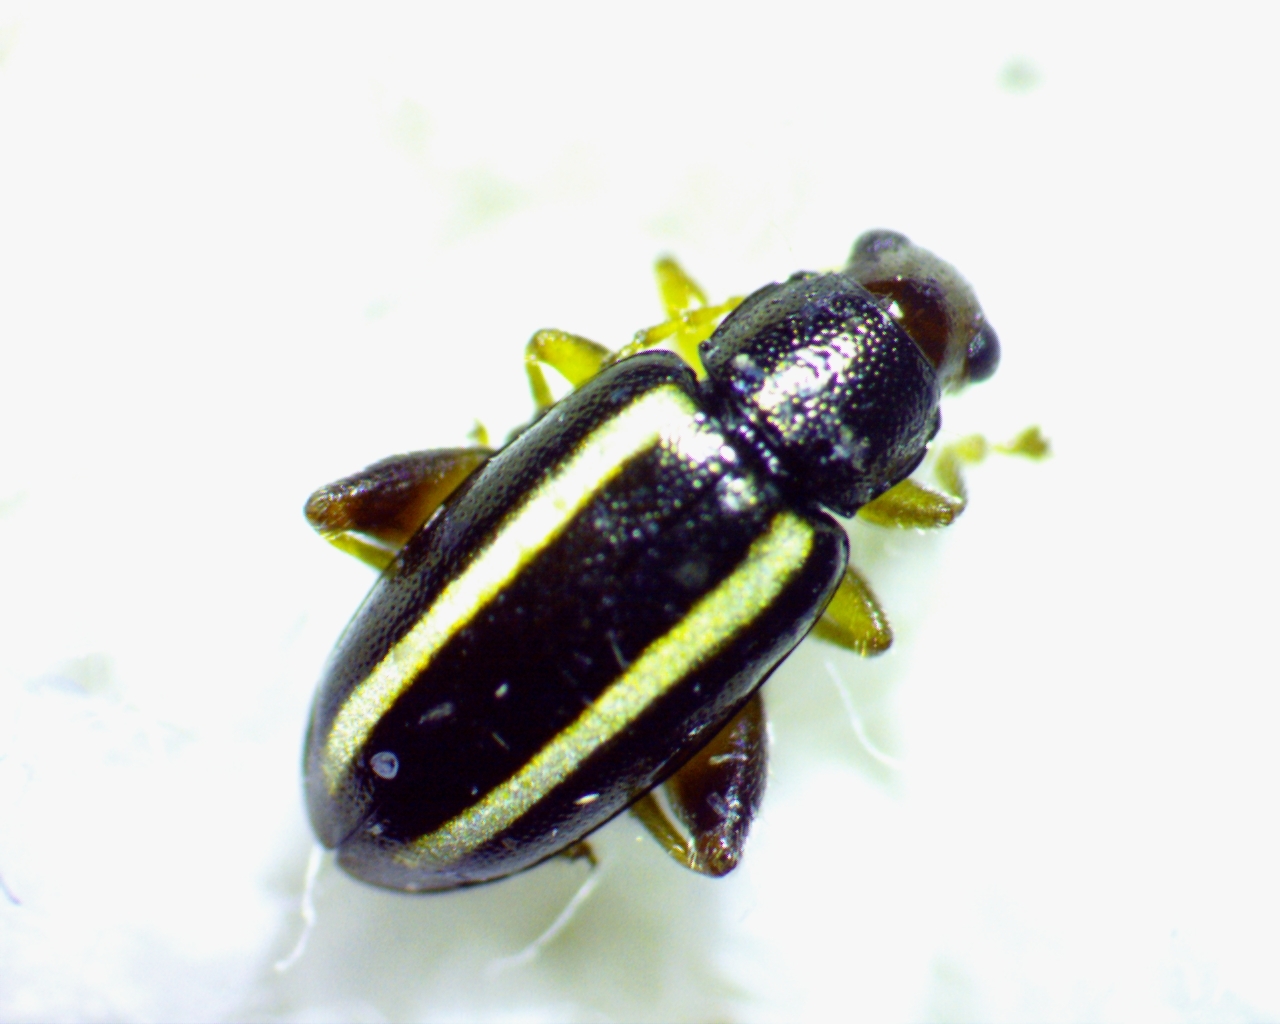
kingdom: Animalia
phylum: Arthropoda
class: Insecta
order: Coleoptera
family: Chrysomelidae
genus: Systena
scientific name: Systena elongata
